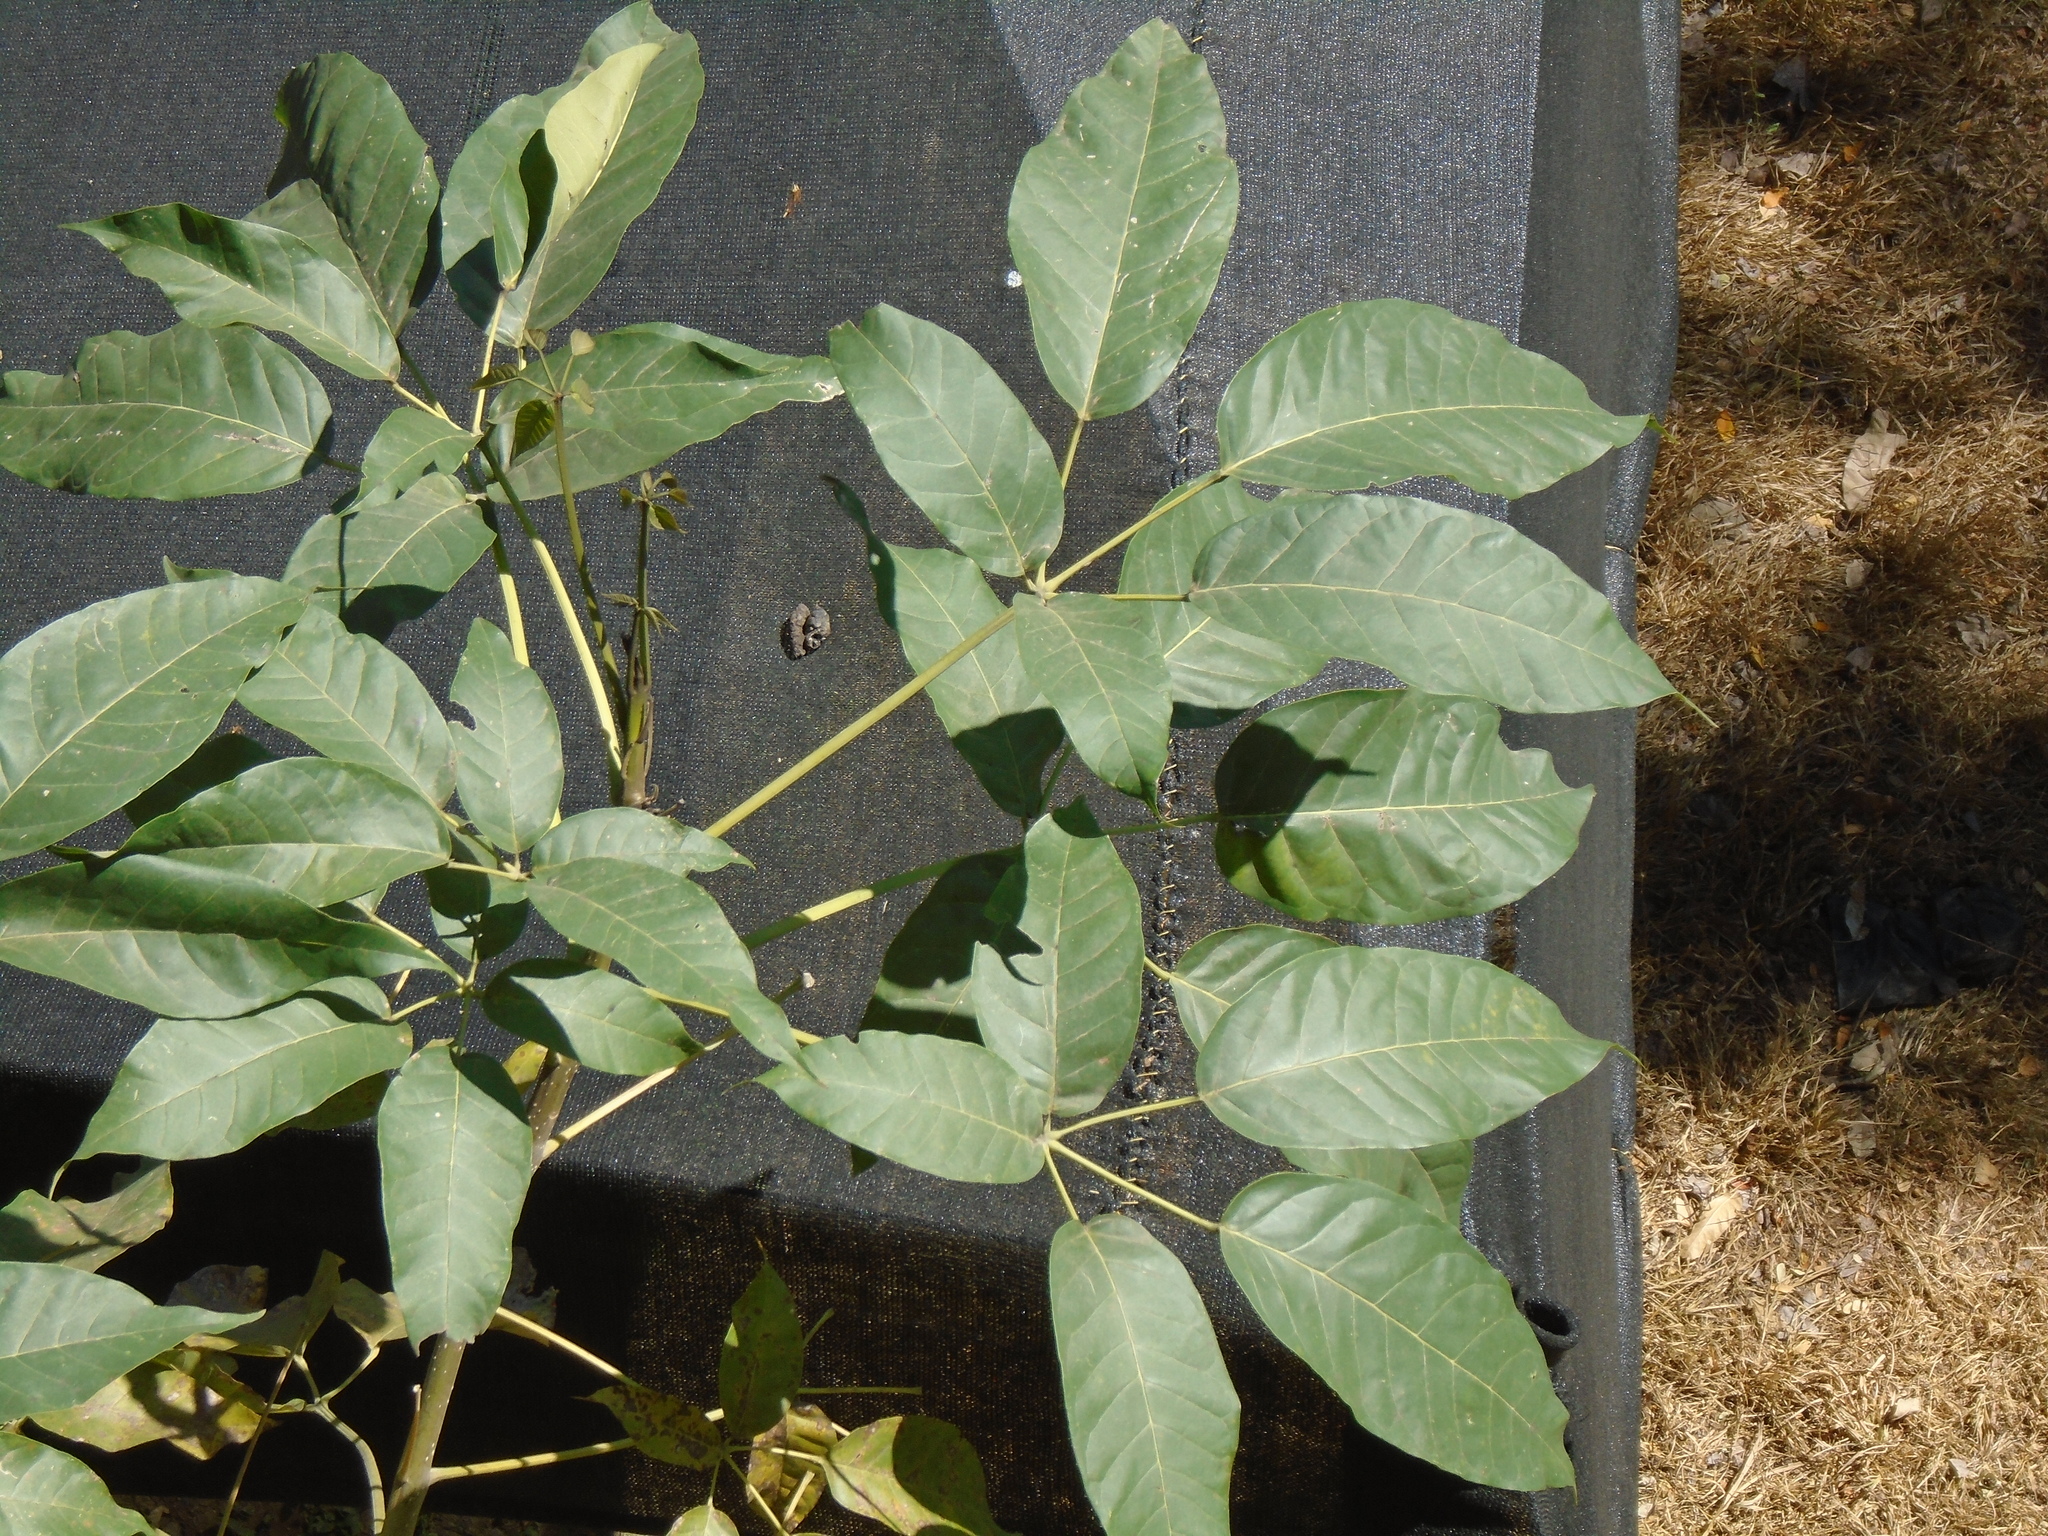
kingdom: Plantae
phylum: Tracheophyta
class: Magnoliopsida
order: Lamiales
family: Bignoniaceae
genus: Tabebuia
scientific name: Tabebuia rosea
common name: Pink poui
